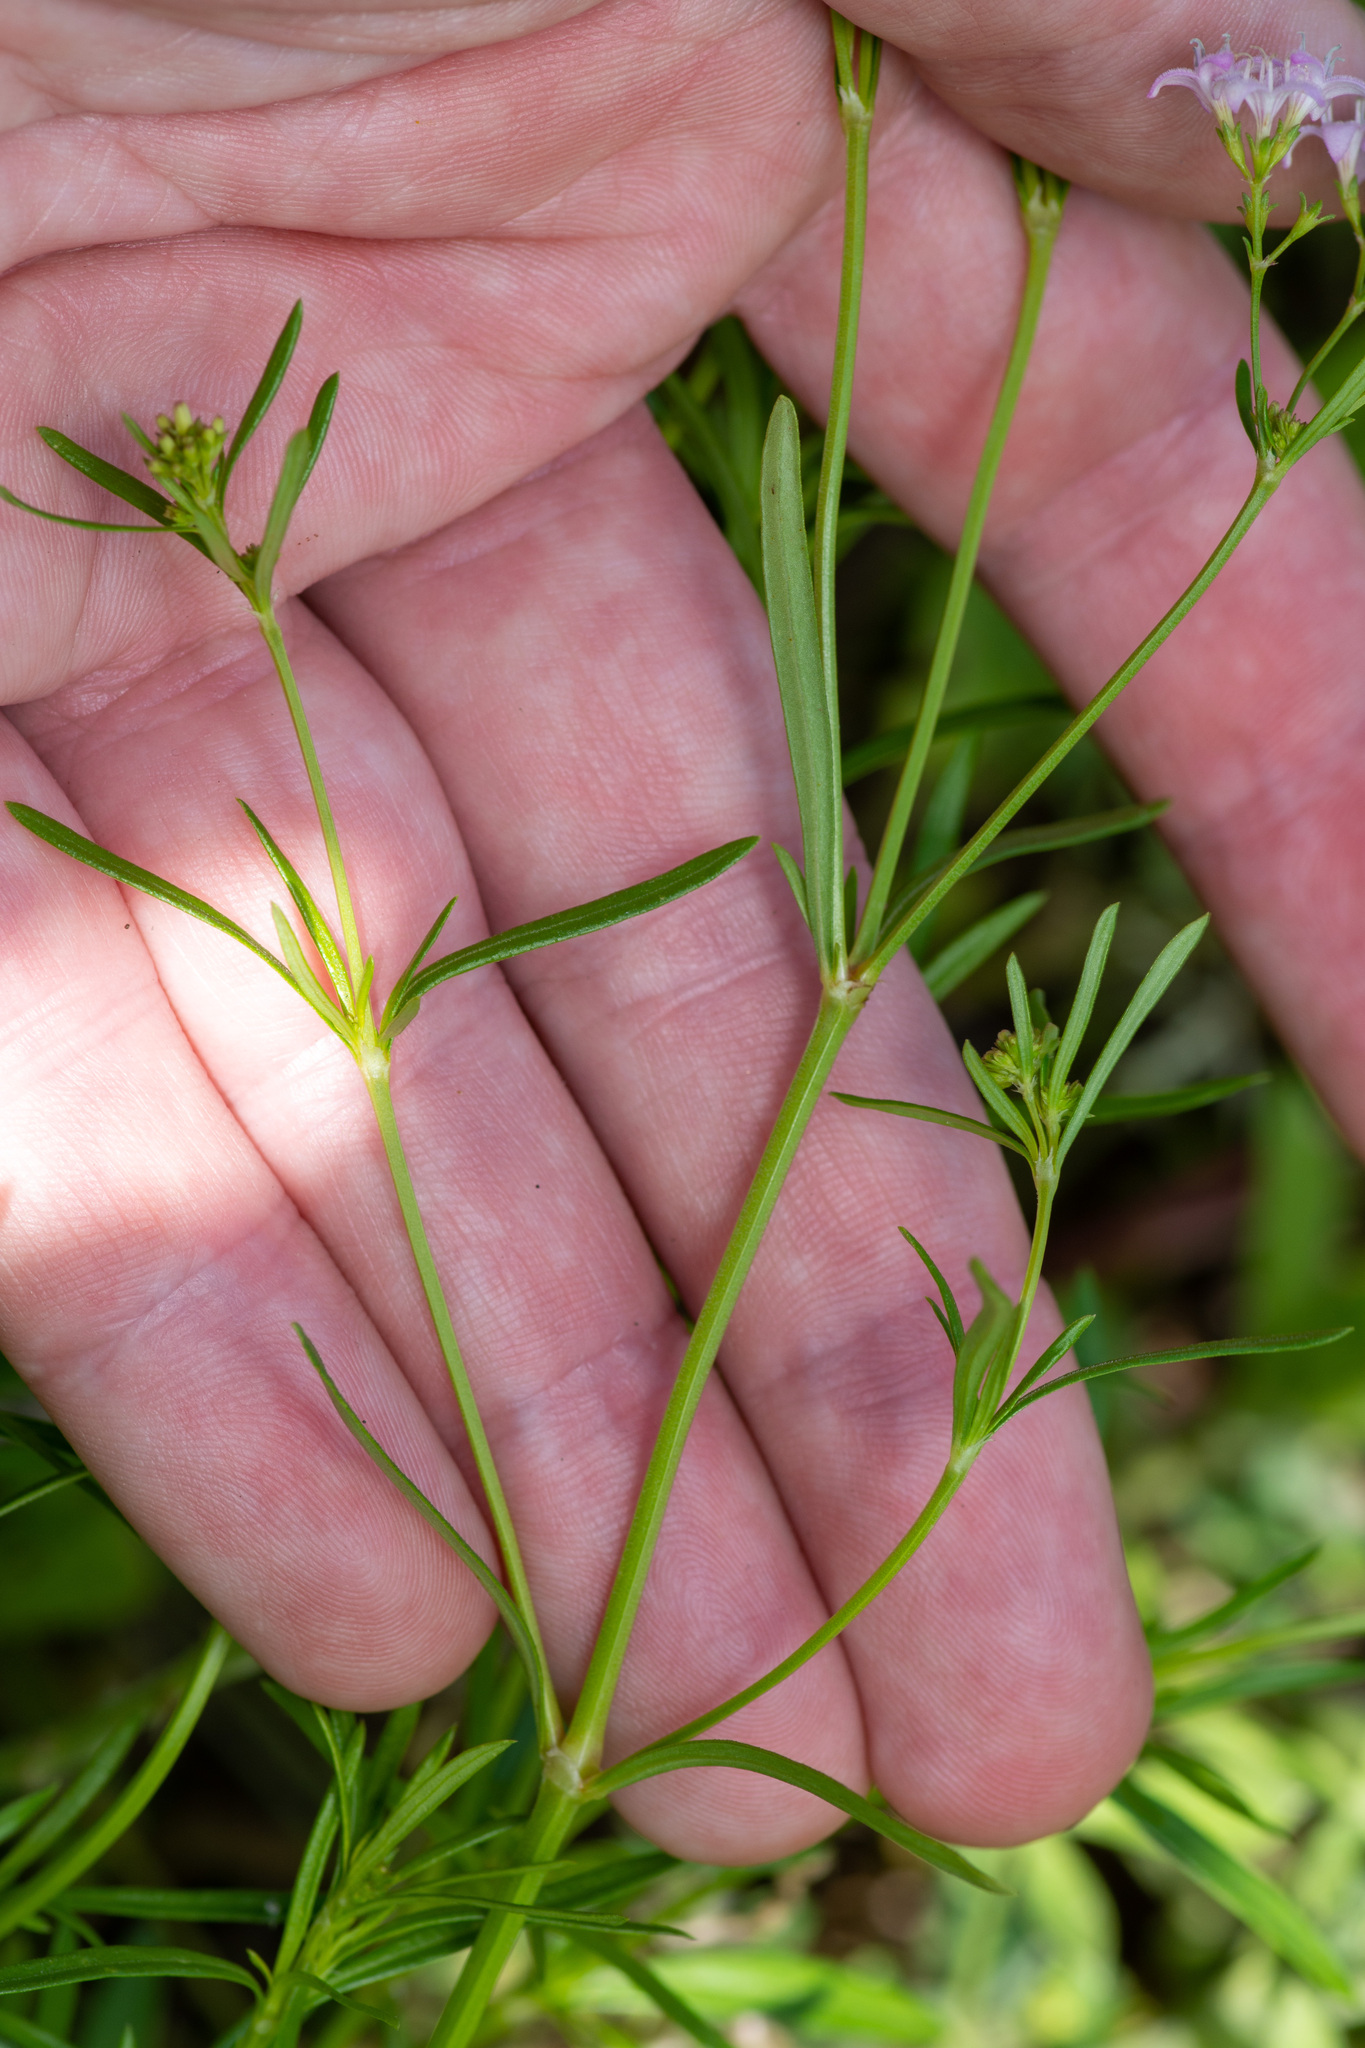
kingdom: Plantae
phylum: Tracheophyta
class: Magnoliopsida
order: Gentianales
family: Rubiaceae
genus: Stenaria
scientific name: Stenaria nigricans
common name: Diamondflowers
